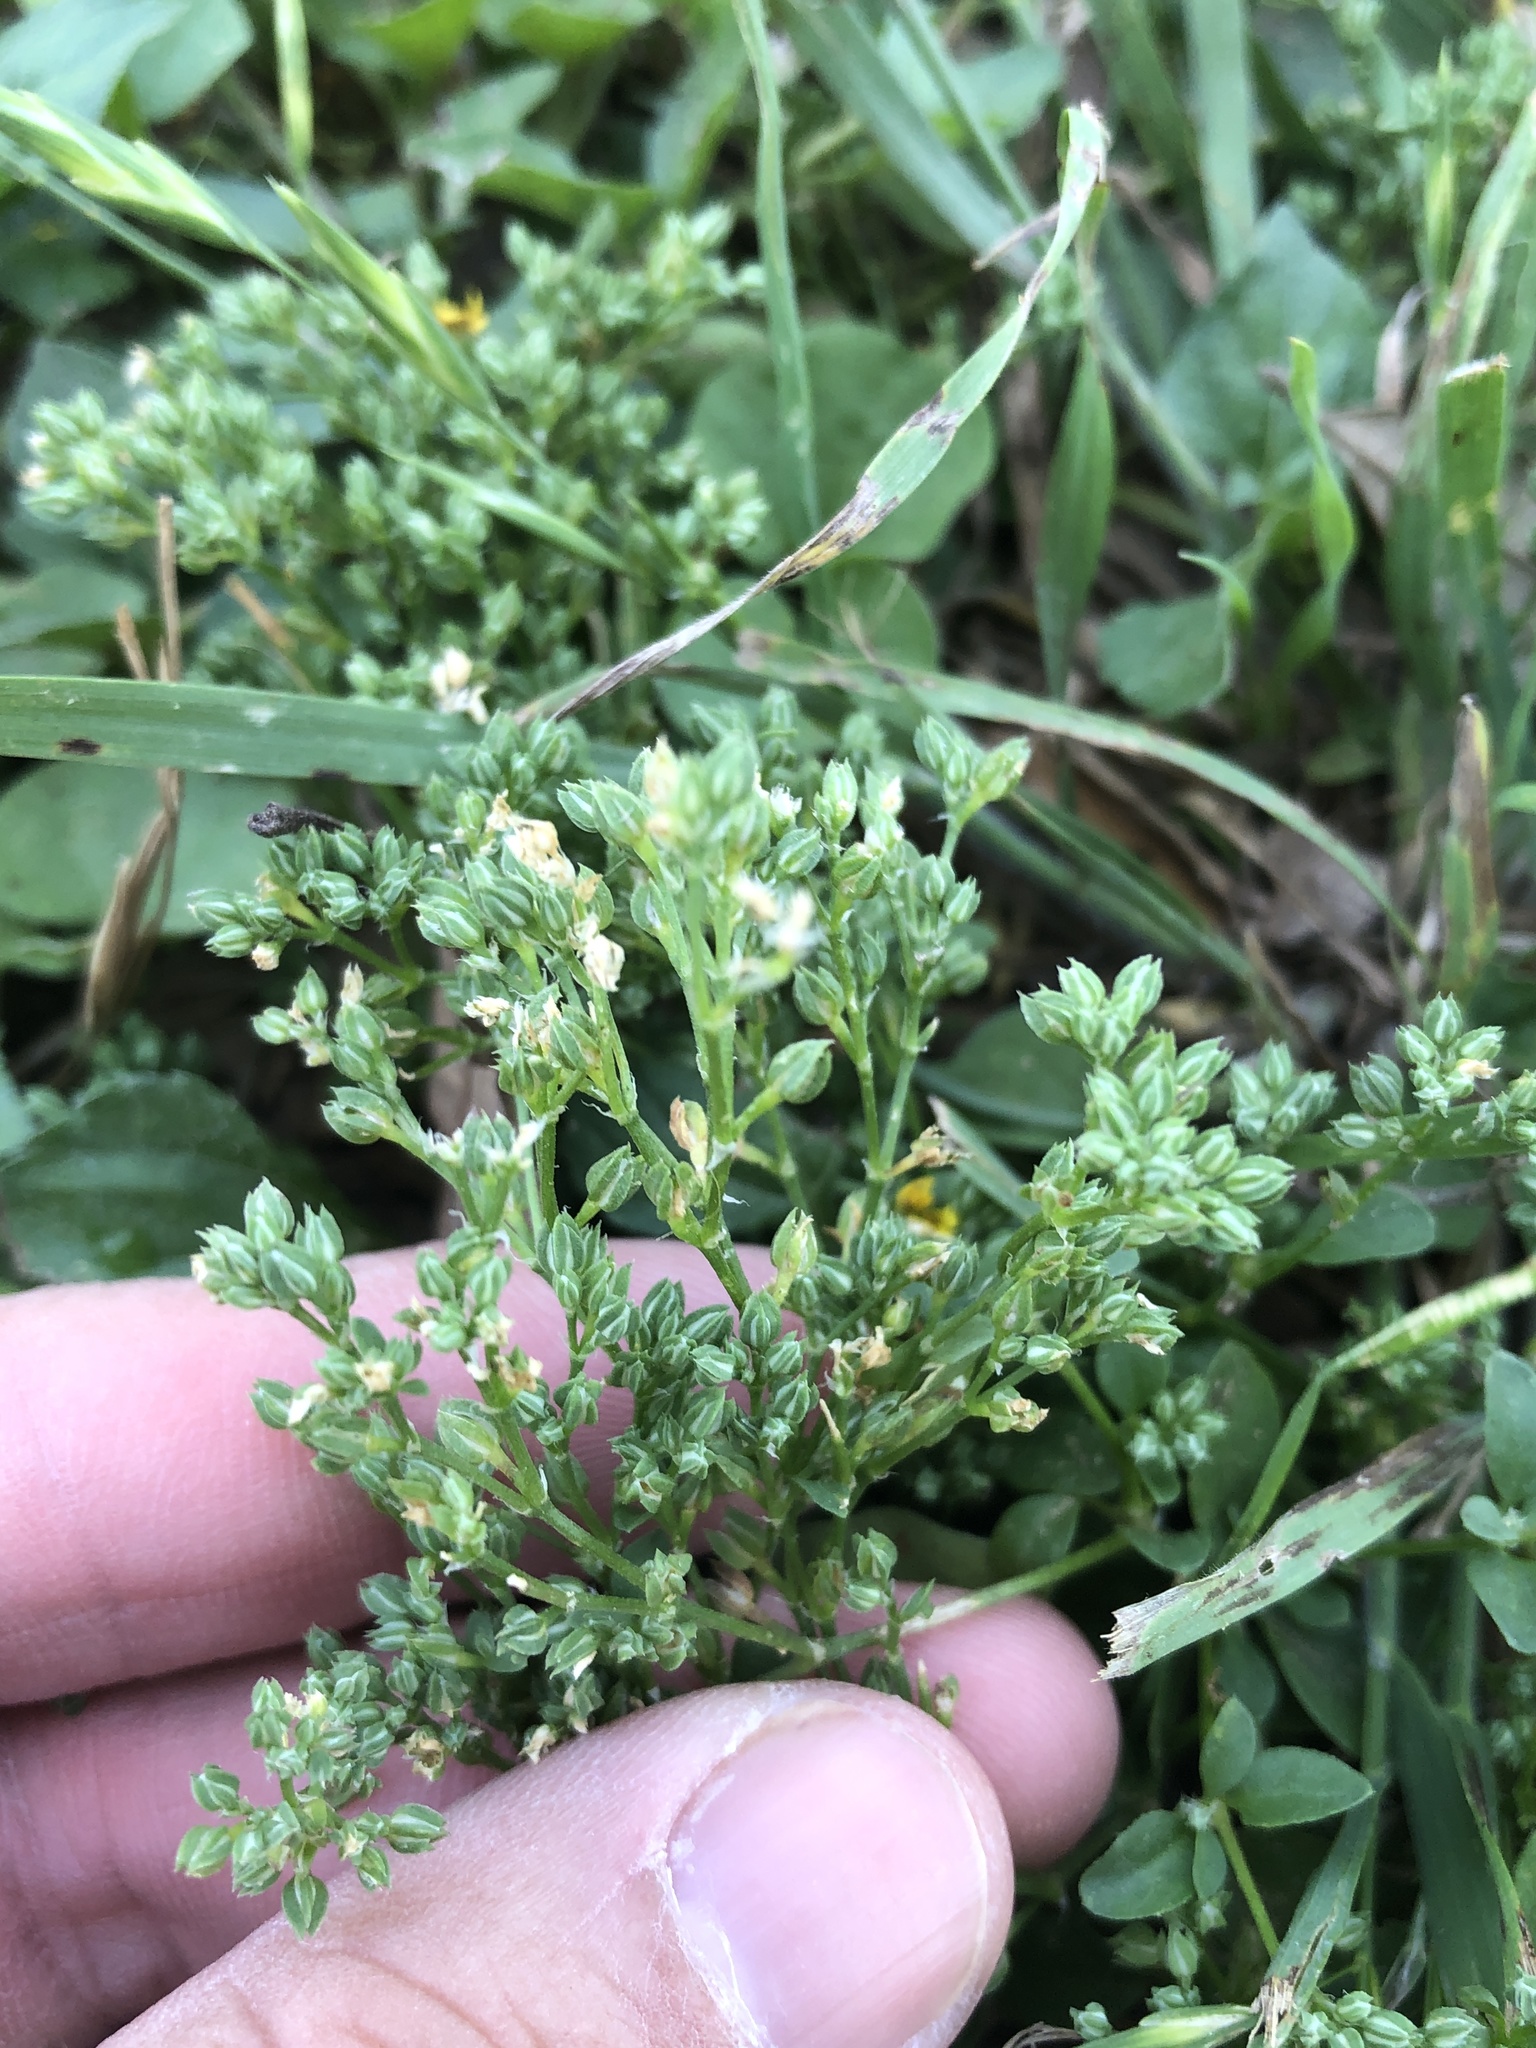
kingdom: Plantae
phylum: Tracheophyta
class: Magnoliopsida
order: Caryophyllales
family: Caryophyllaceae
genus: Polycarpon
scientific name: Polycarpon tetraphyllum
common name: Four-leaved all-seed
